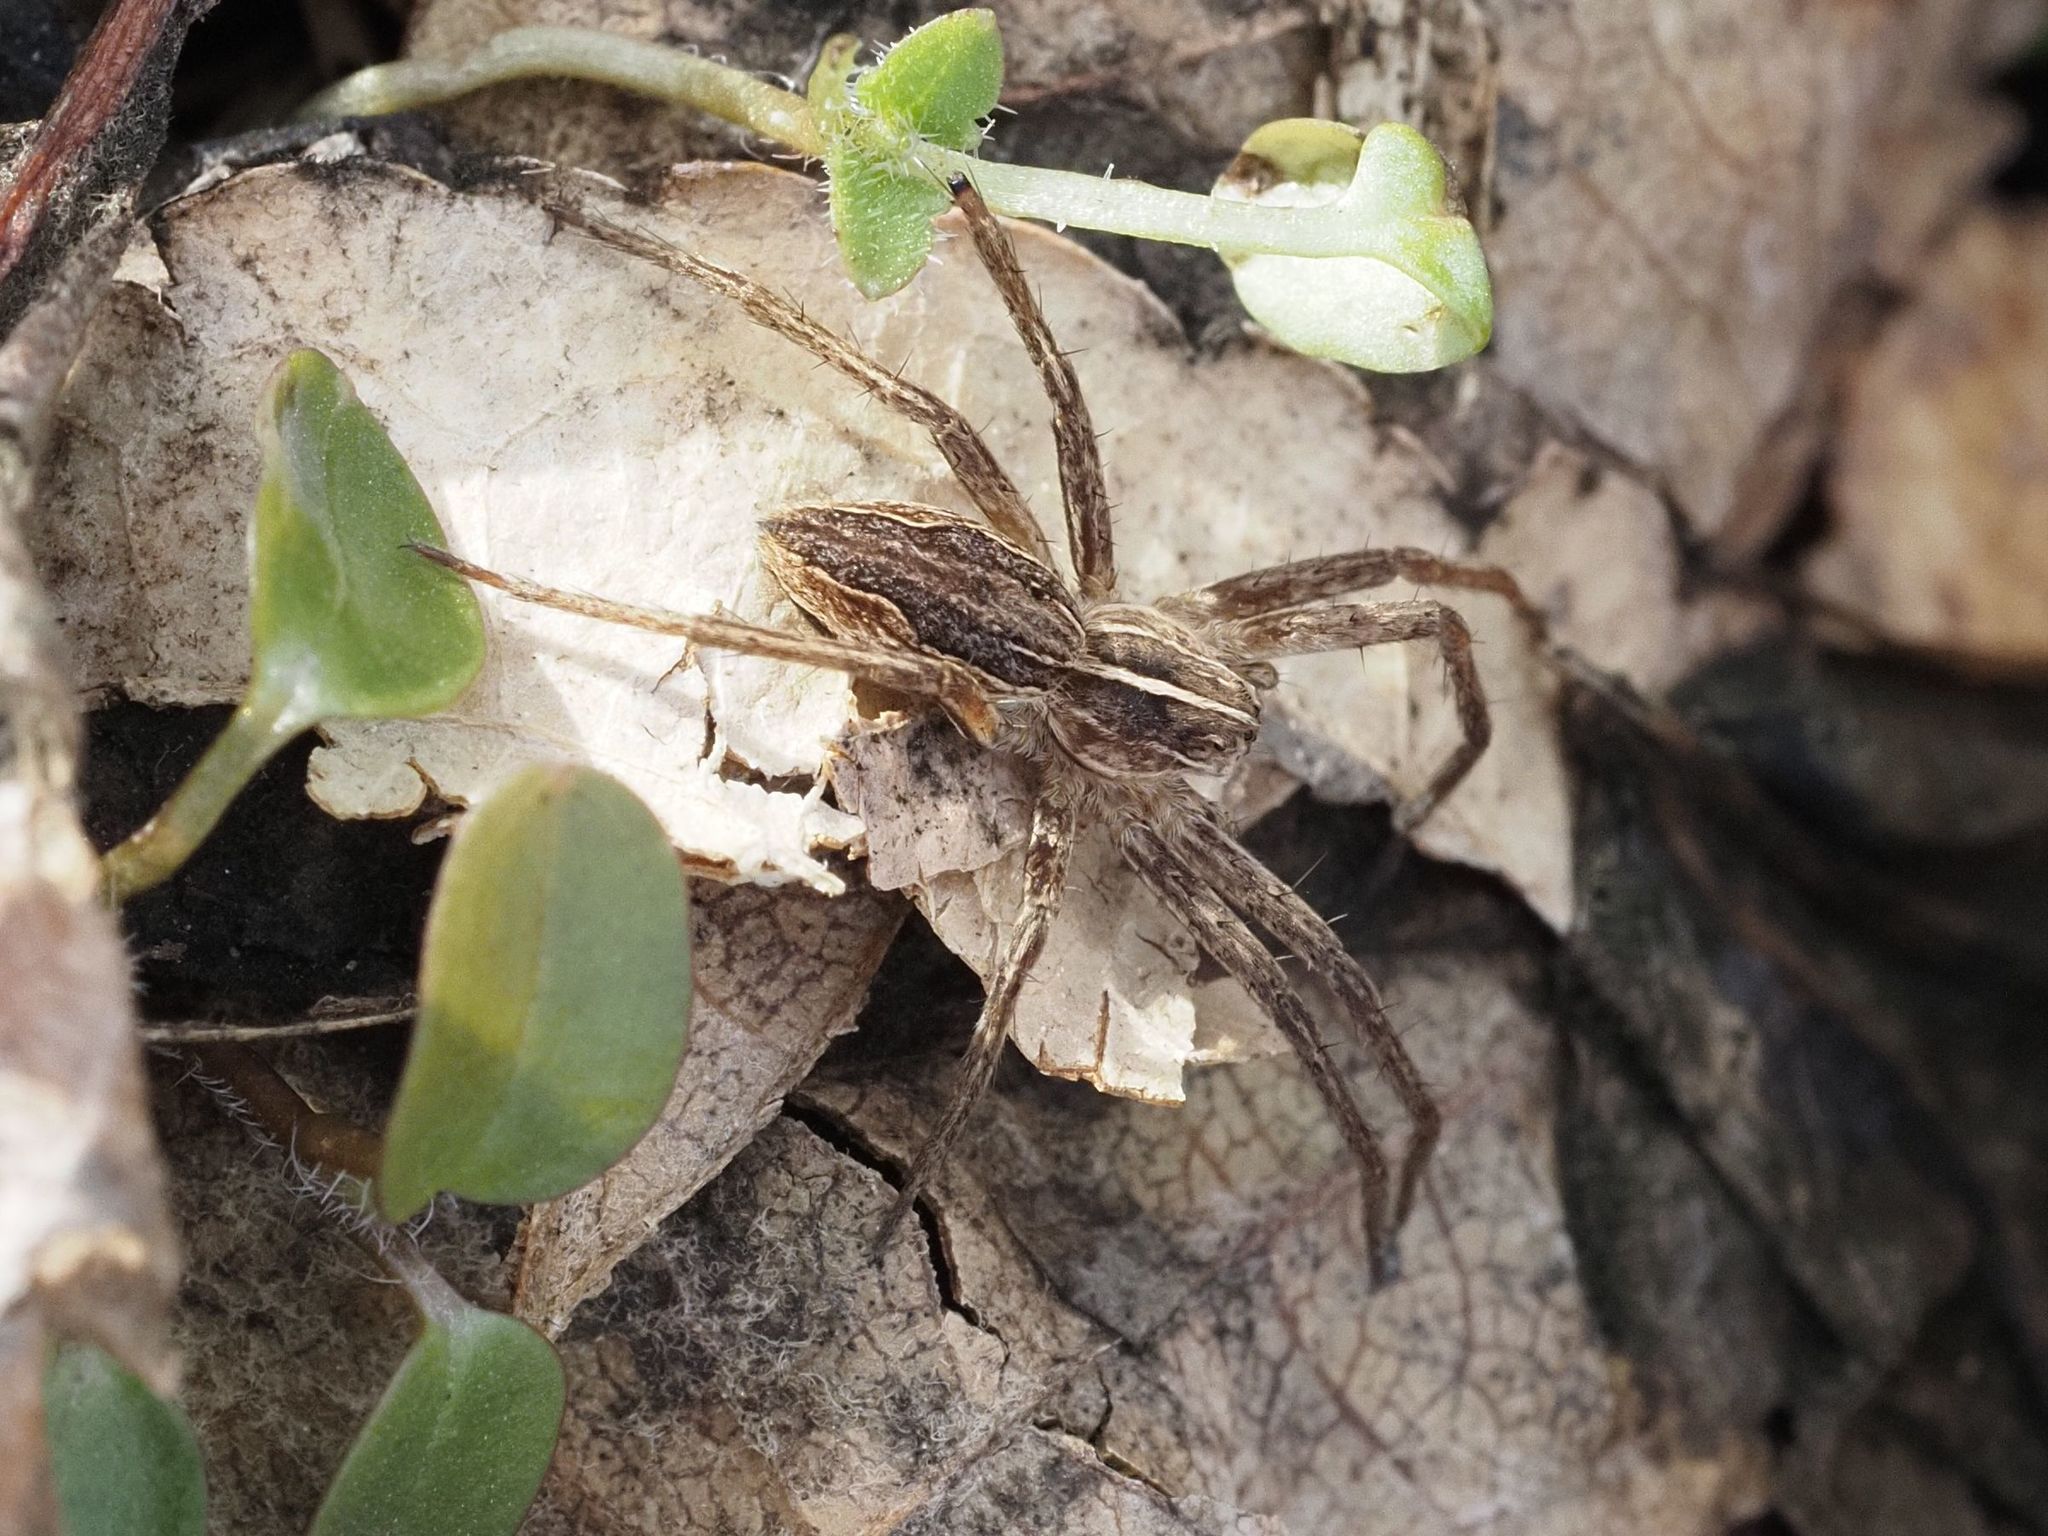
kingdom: Animalia
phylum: Arthropoda
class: Arachnida
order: Araneae
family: Pisauridae
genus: Pisaura
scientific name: Pisaura mirabilis
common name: Tent spider
